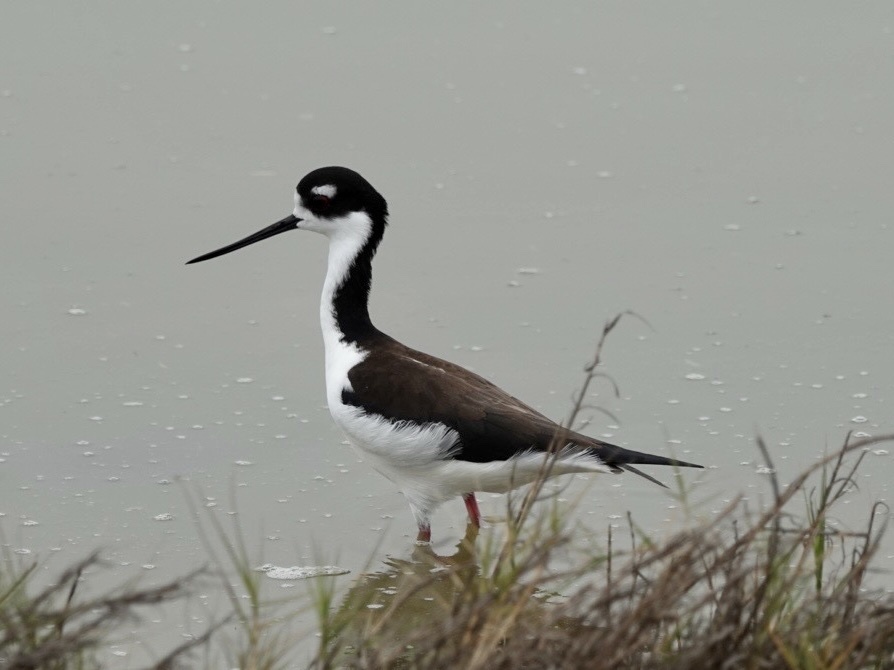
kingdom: Animalia
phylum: Chordata
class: Aves
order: Charadriiformes
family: Recurvirostridae
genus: Himantopus
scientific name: Himantopus mexicanus
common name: Black-necked stilt
